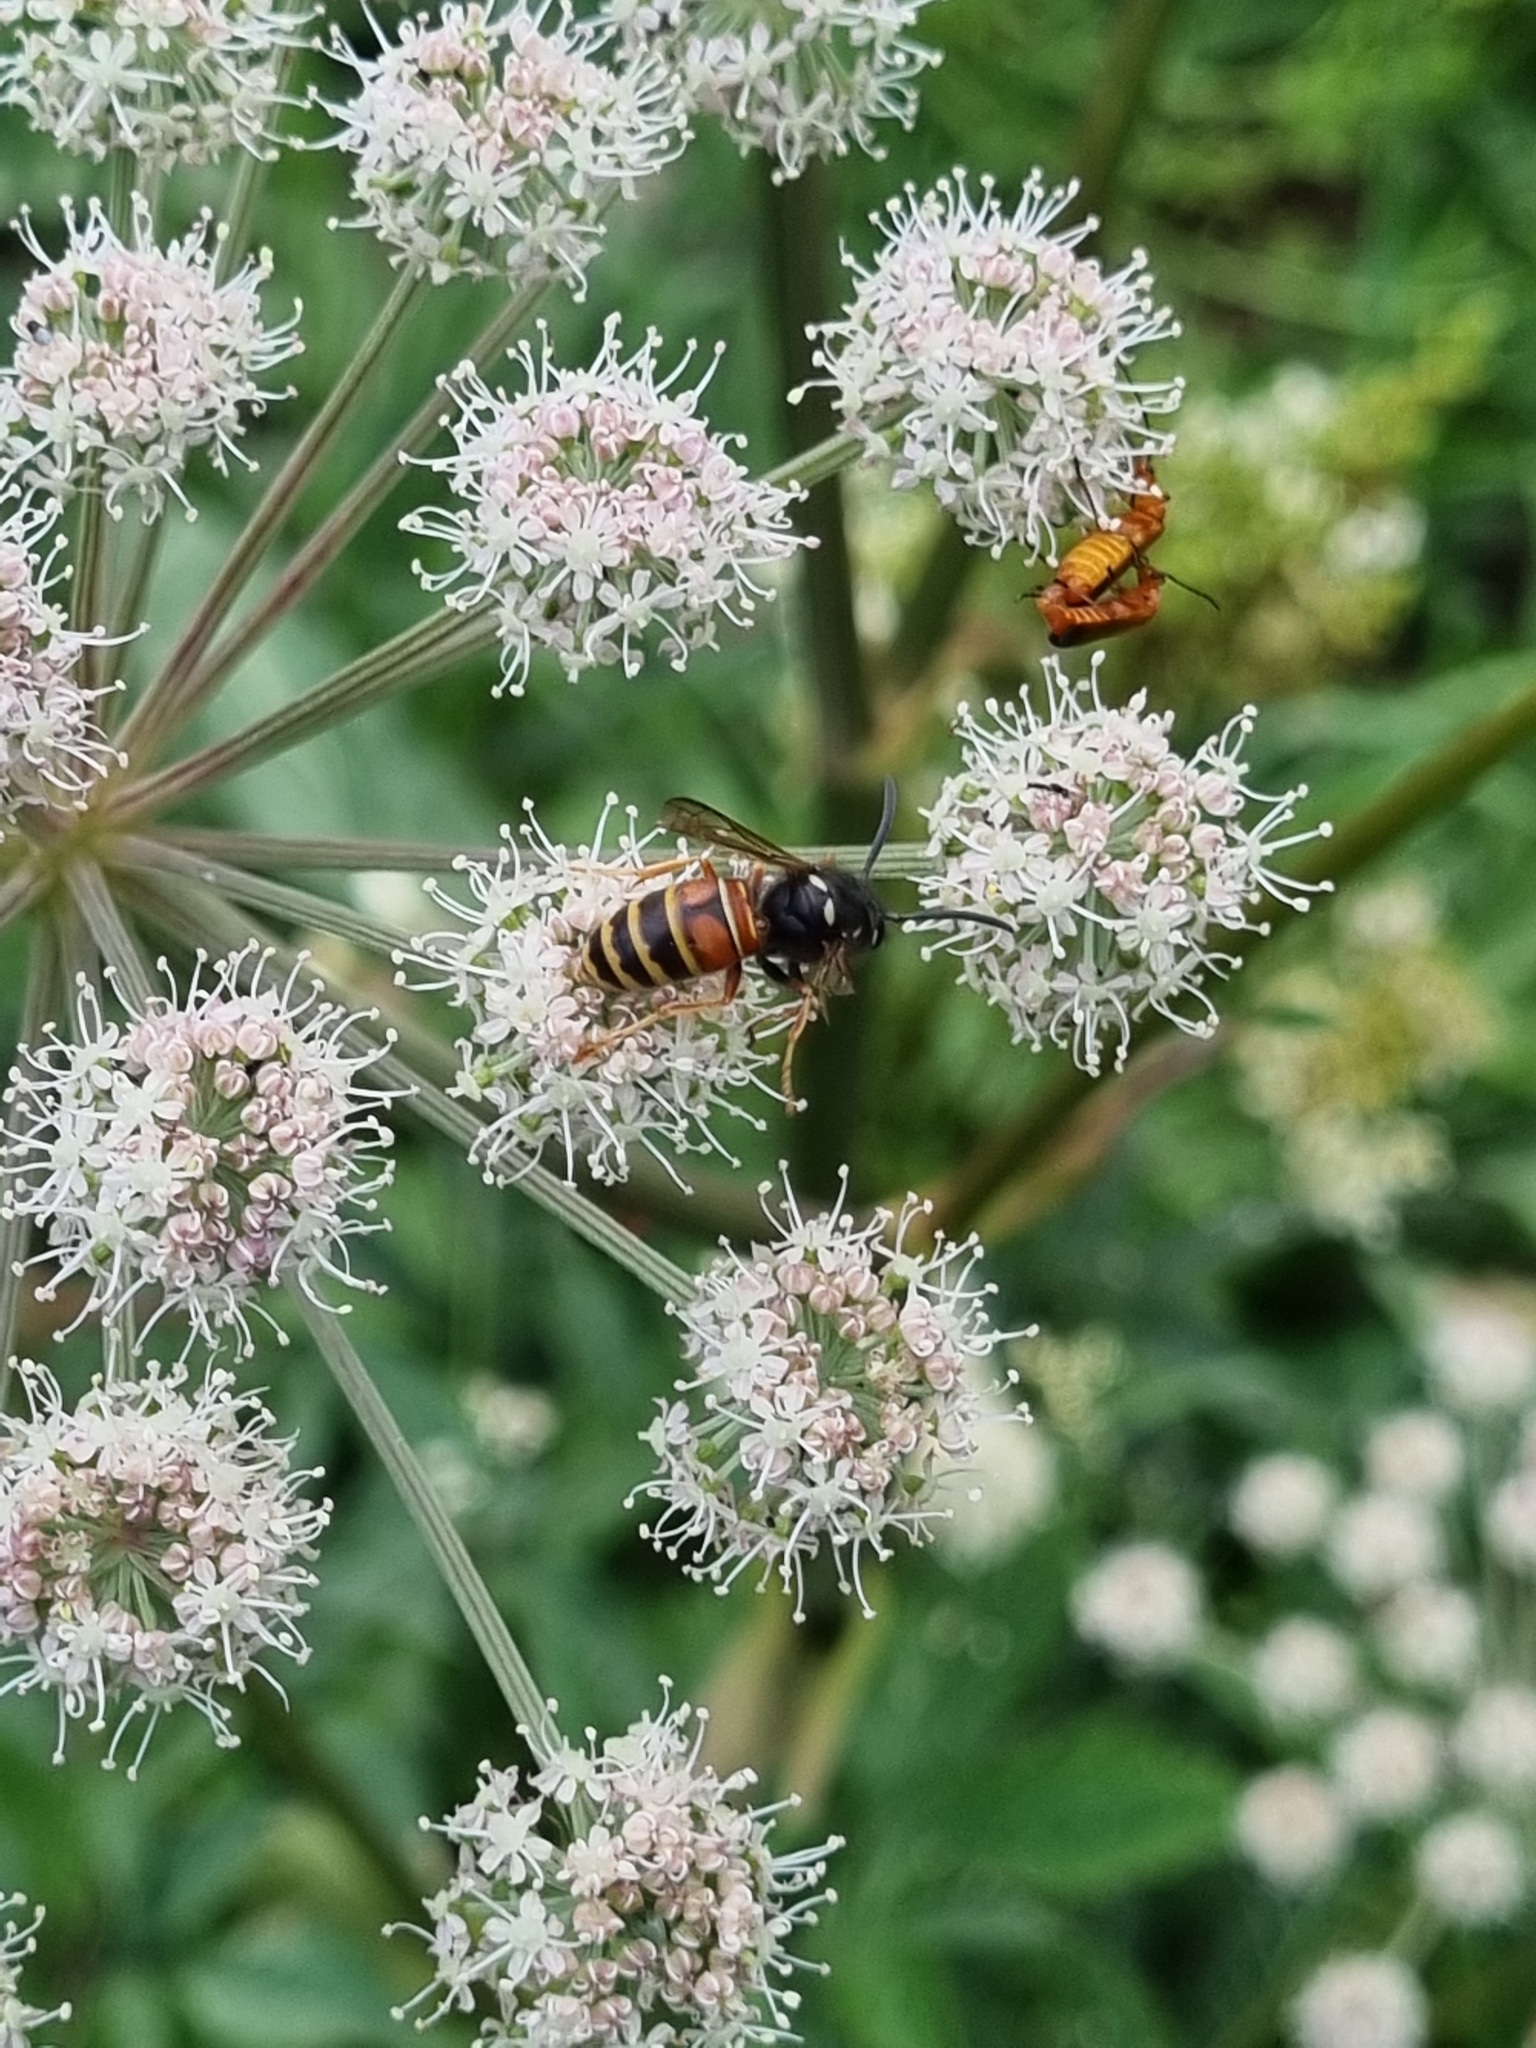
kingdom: Animalia
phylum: Arthropoda
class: Insecta
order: Hymenoptera
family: Vespidae
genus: Vespula
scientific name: Vespula rufa
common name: Red wasp
